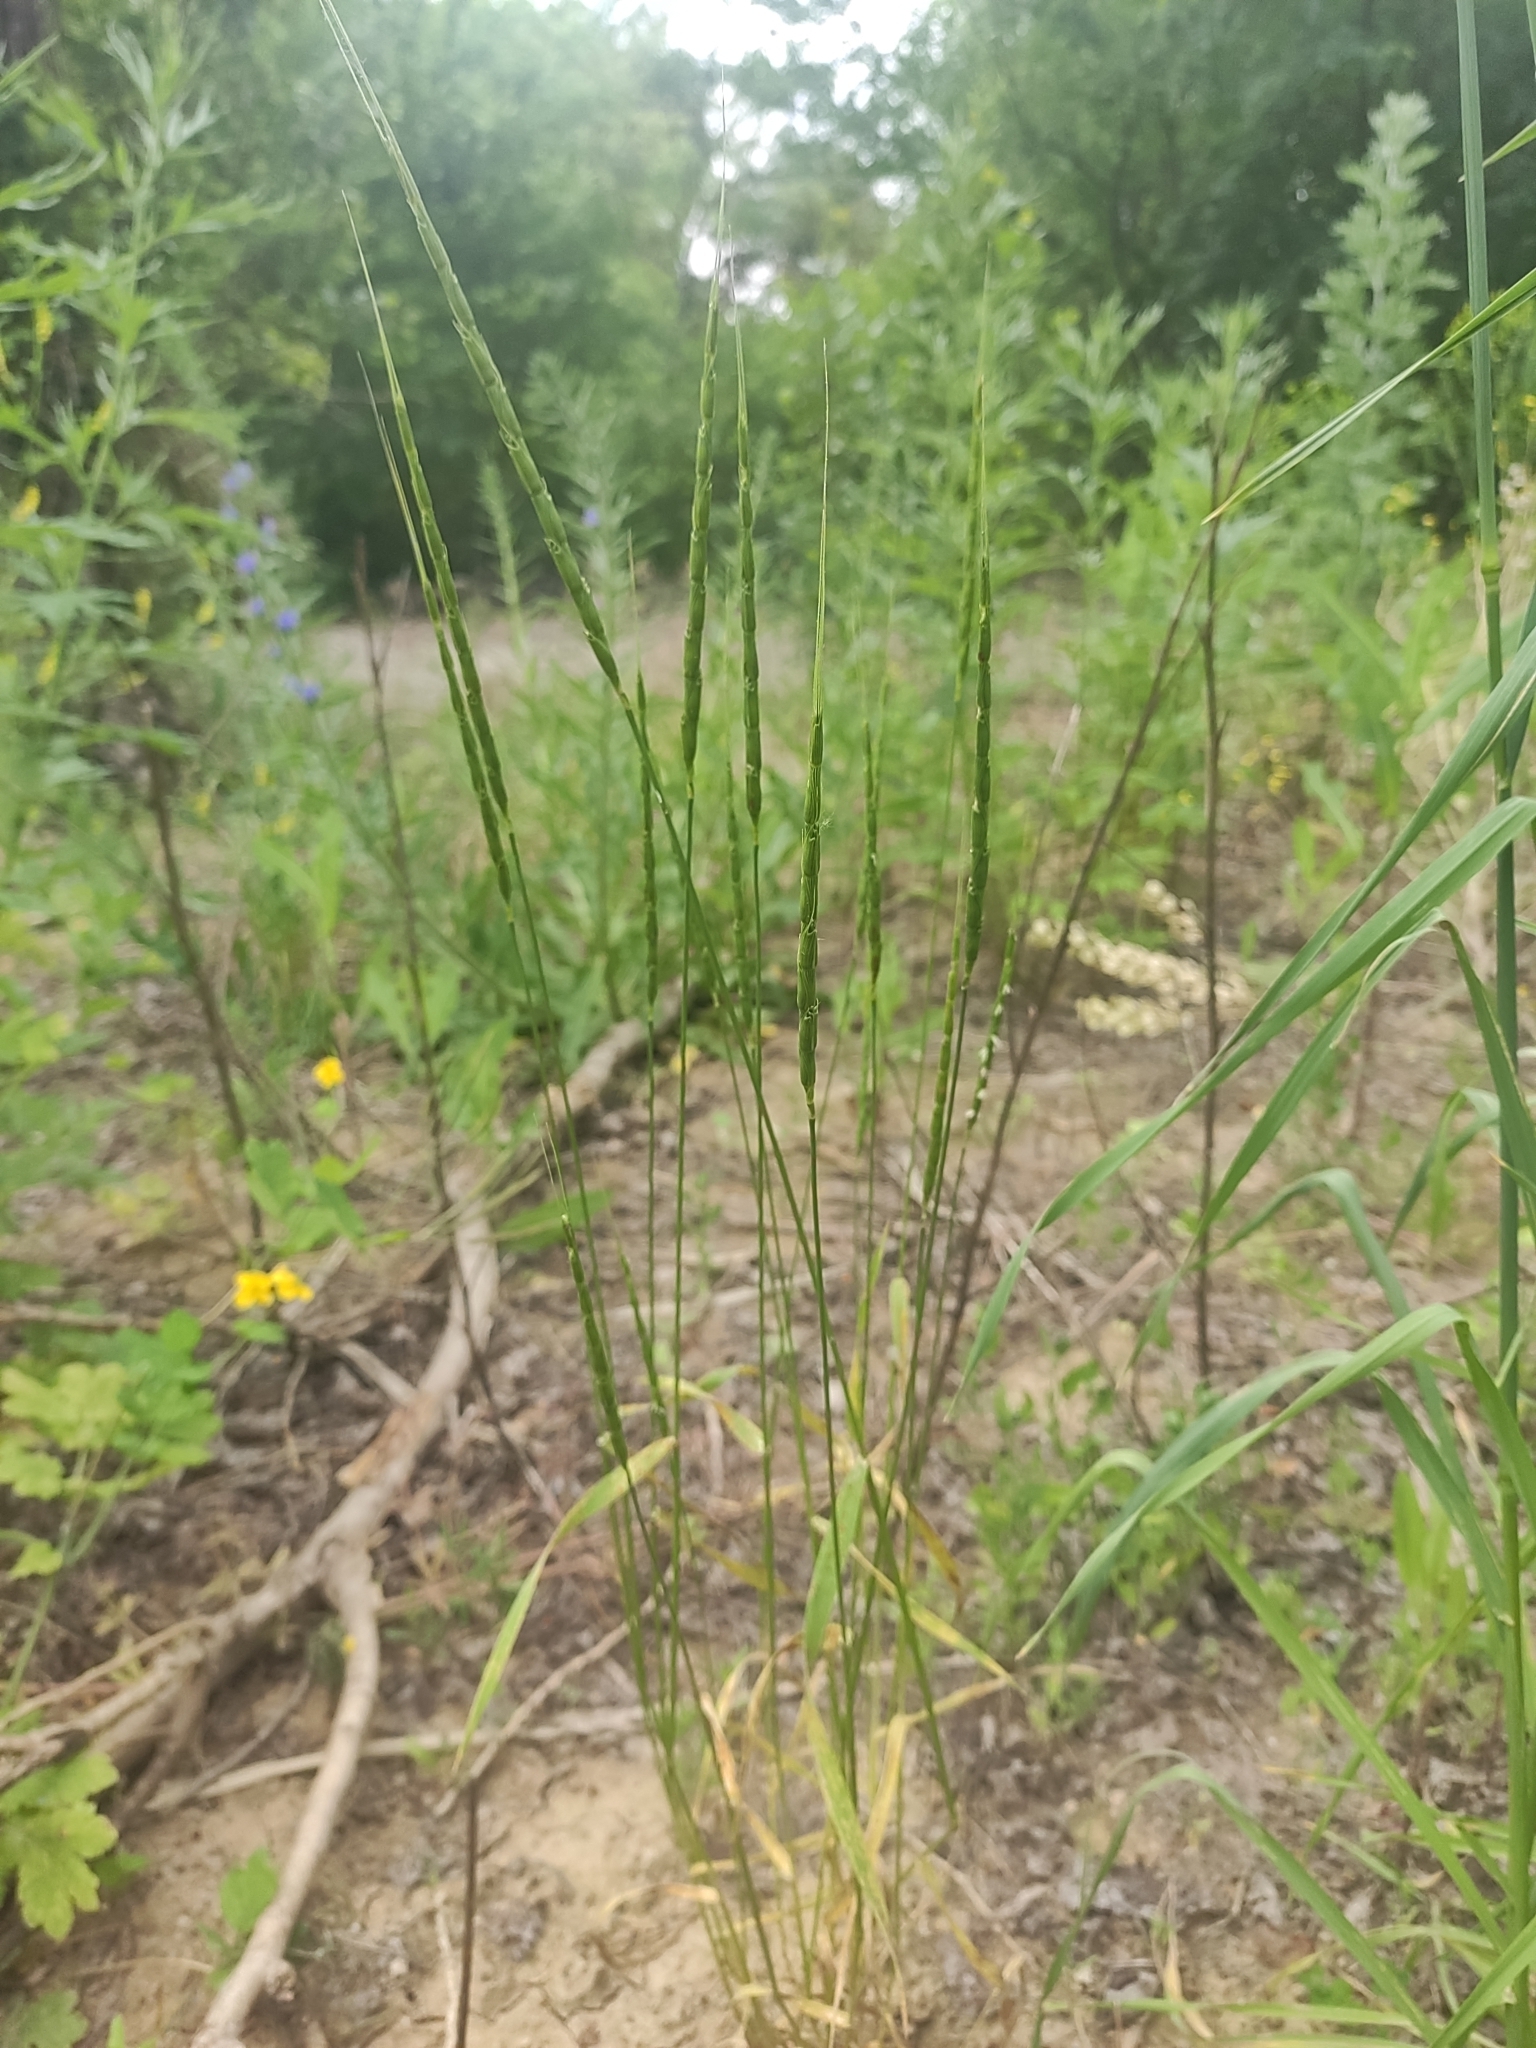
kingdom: Plantae
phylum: Tracheophyta
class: Liliopsida
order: Poales
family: Poaceae
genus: Aegilops
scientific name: Aegilops cylindrica
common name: Jointed goatgrass
